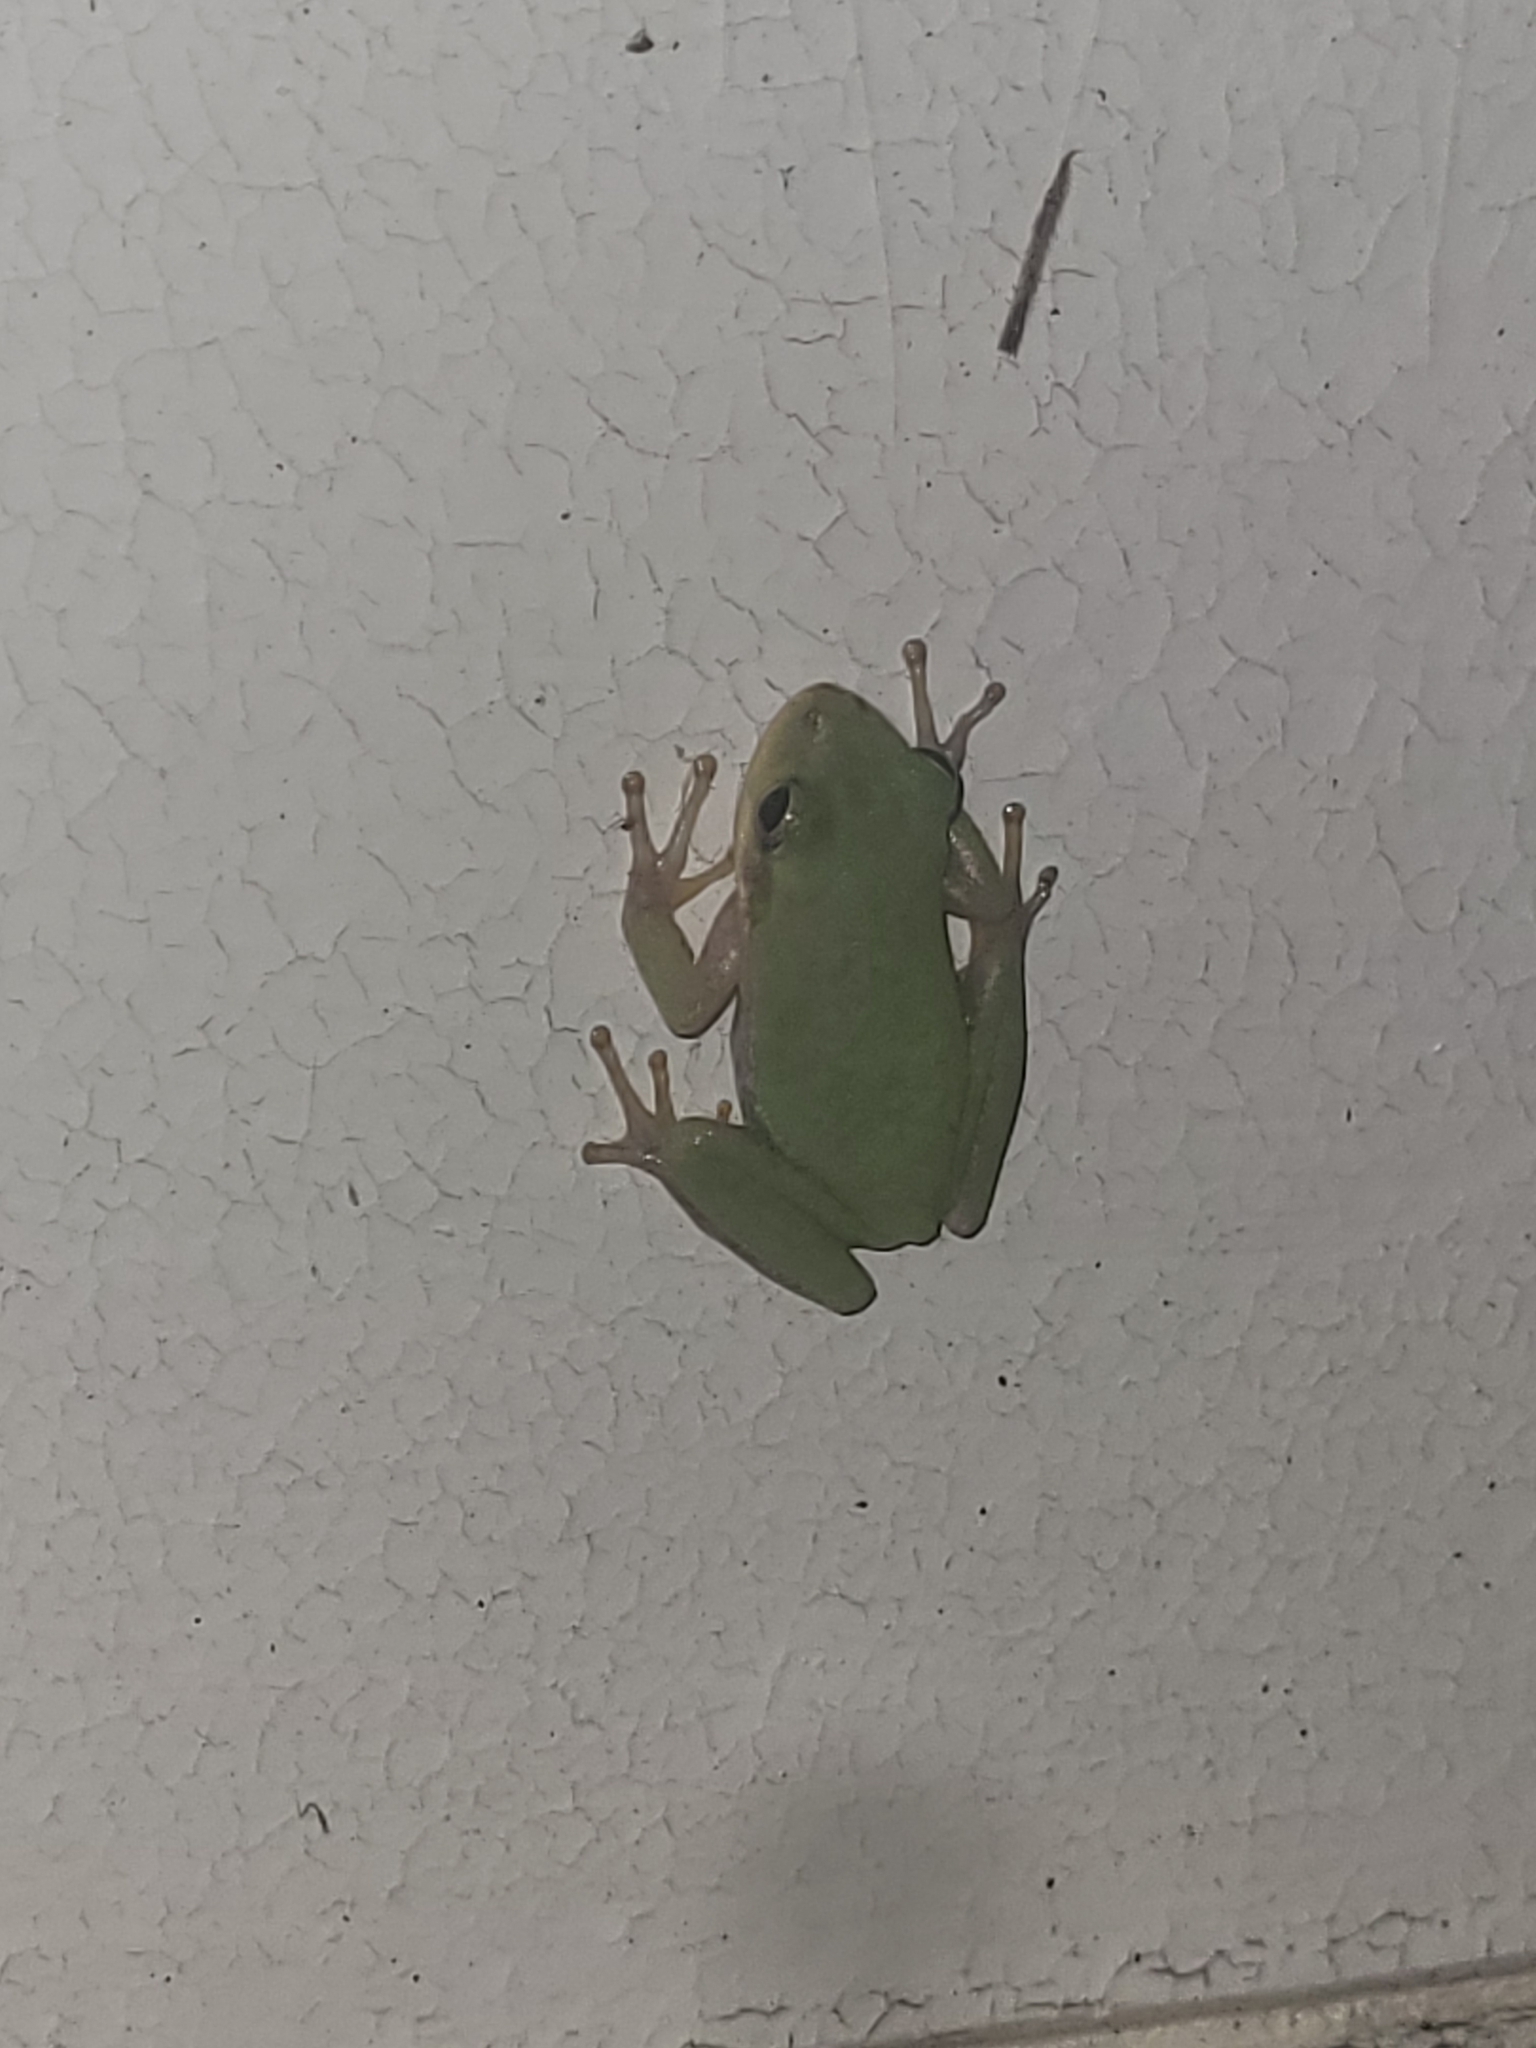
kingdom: Animalia
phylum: Chordata
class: Amphibia
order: Anura
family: Hylidae
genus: Dryophytes
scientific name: Dryophytes squirellus
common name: Squirrel treefrog
